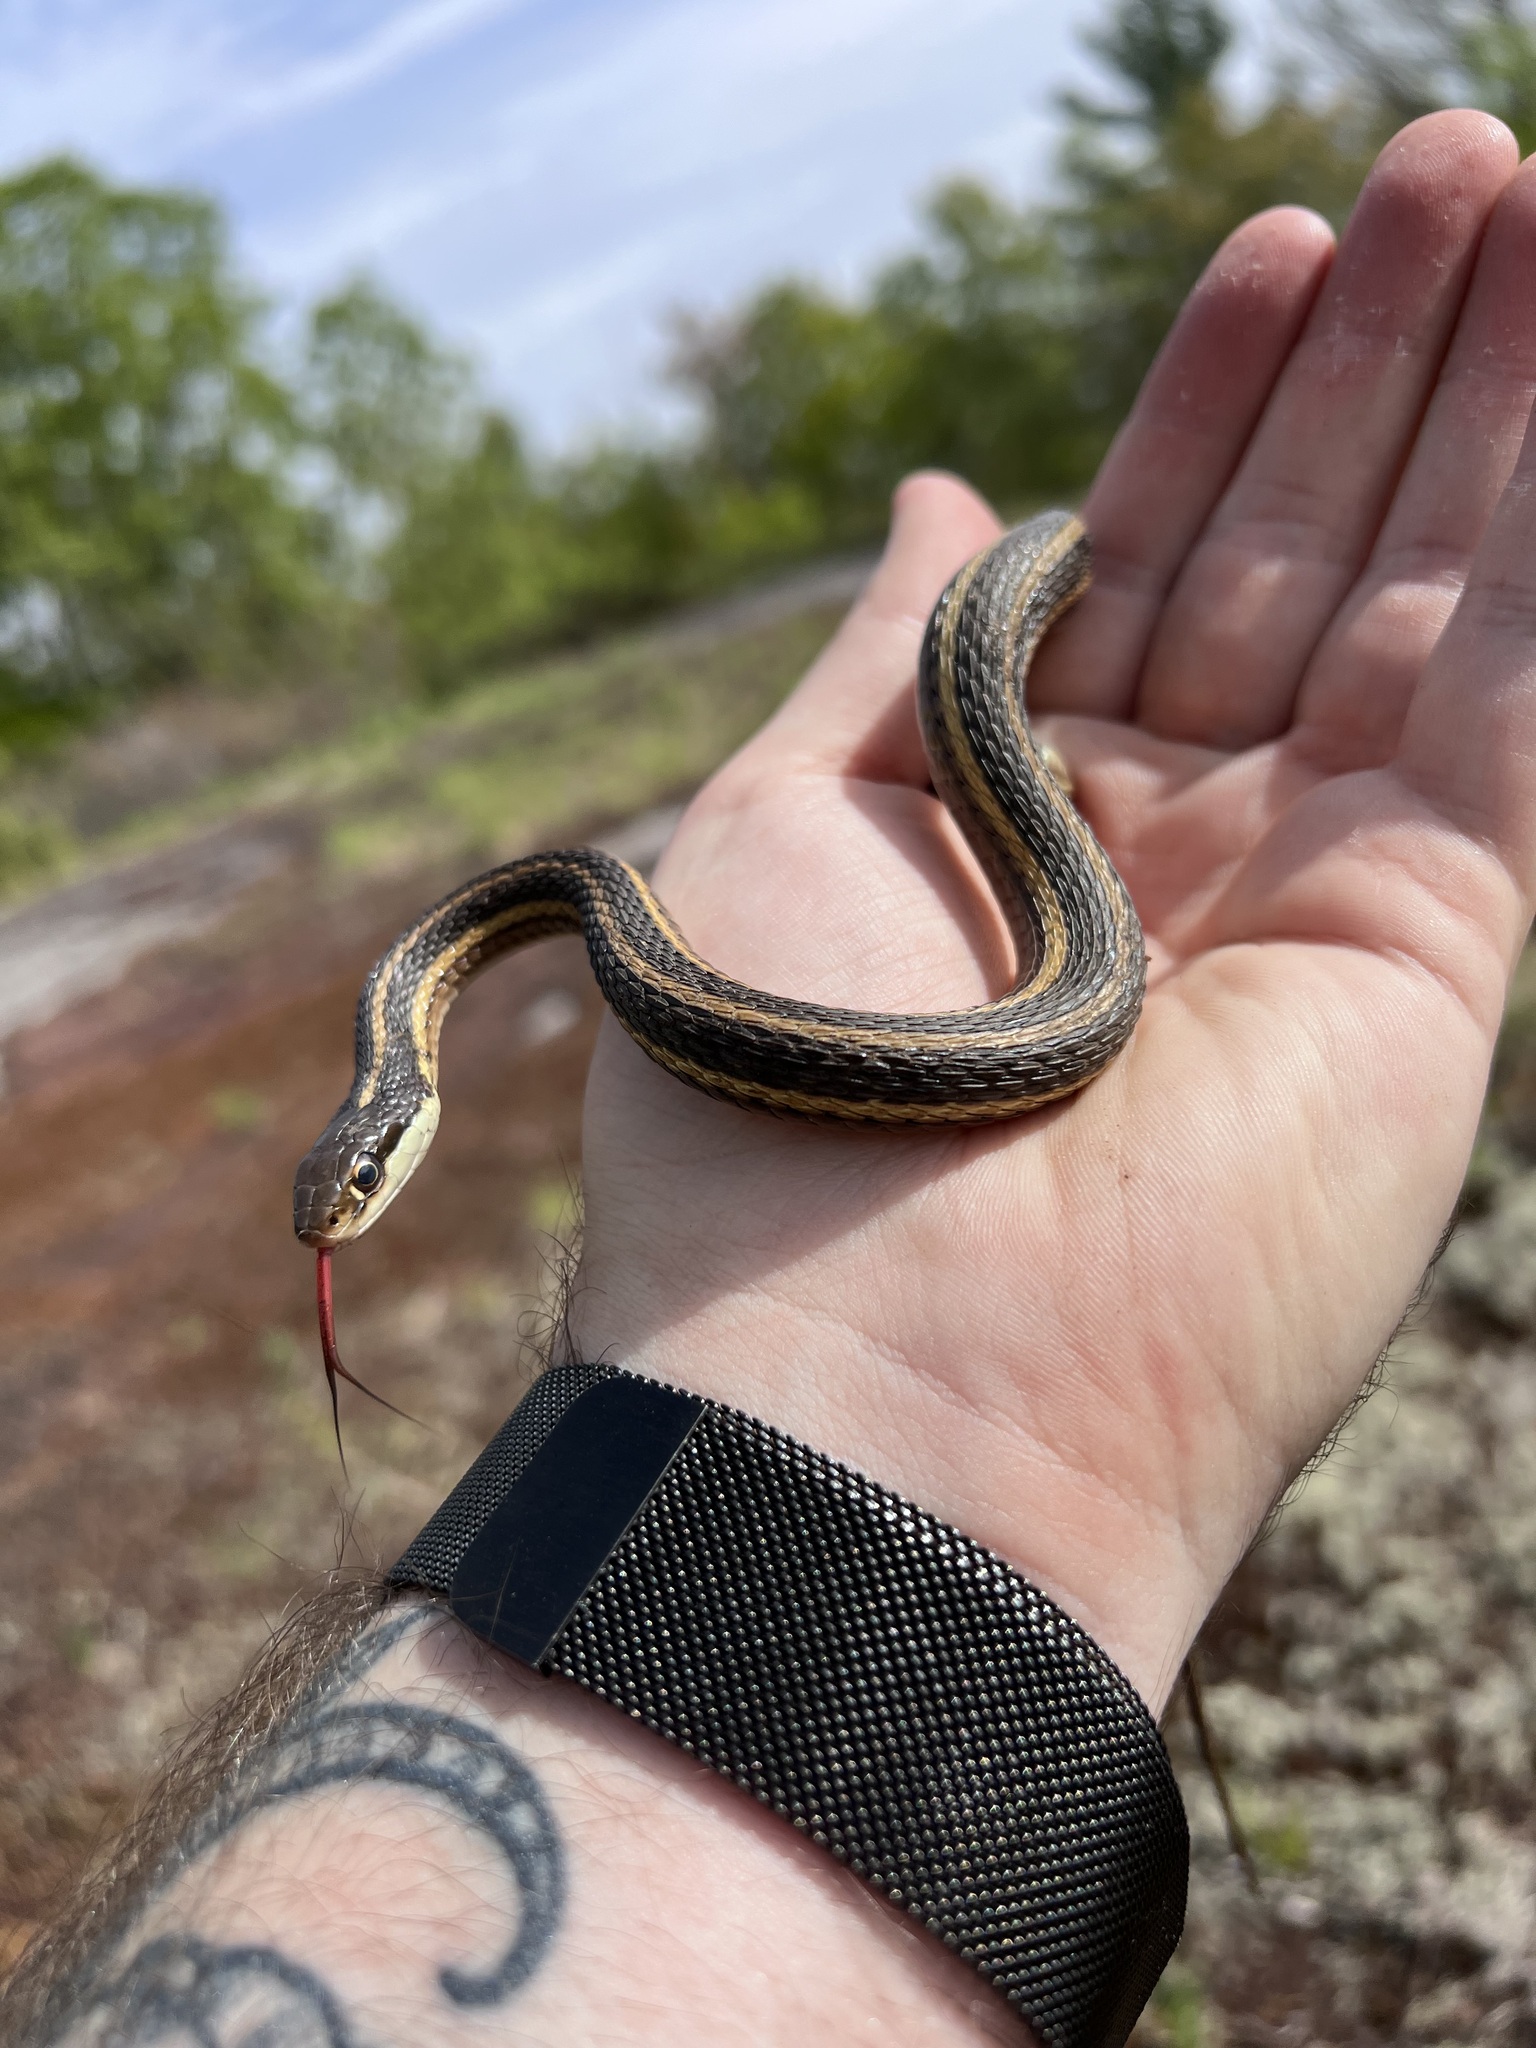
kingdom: Animalia
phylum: Chordata
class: Squamata
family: Colubridae
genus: Thamnophis
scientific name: Thamnophis saurita
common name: Eastern ribbonsnake
